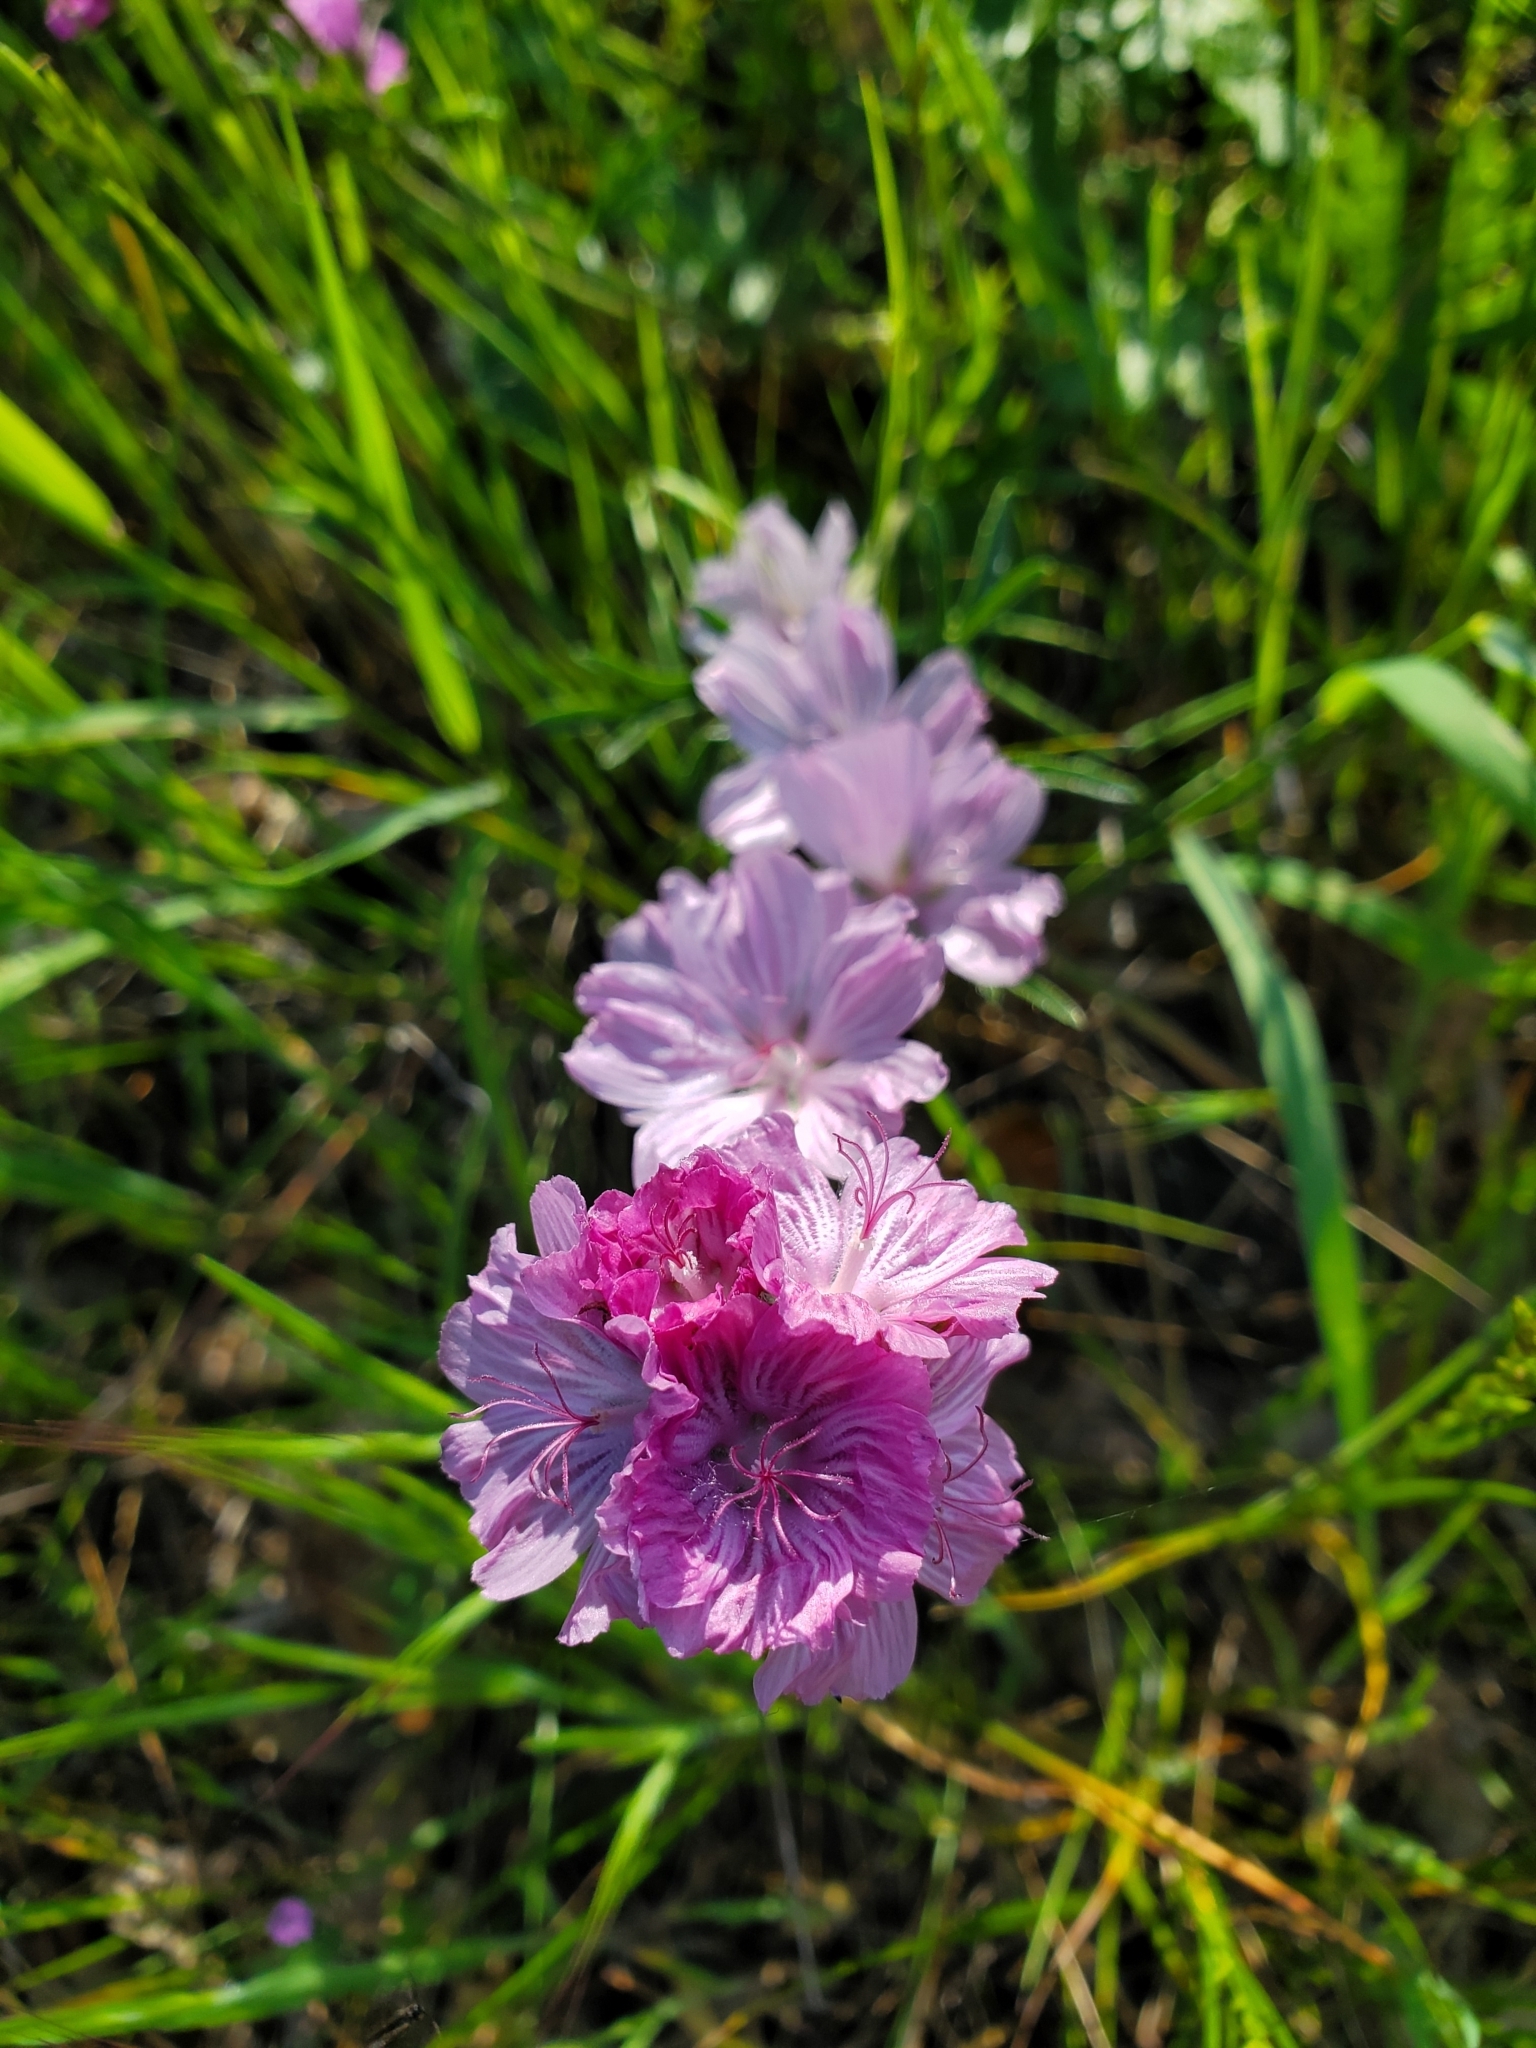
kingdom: Plantae
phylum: Tracheophyta
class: Magnoliopsida
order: Malvales
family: Malvaceae
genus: Sidalcea
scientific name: Sidalcea malviflora
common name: Greek mallow
